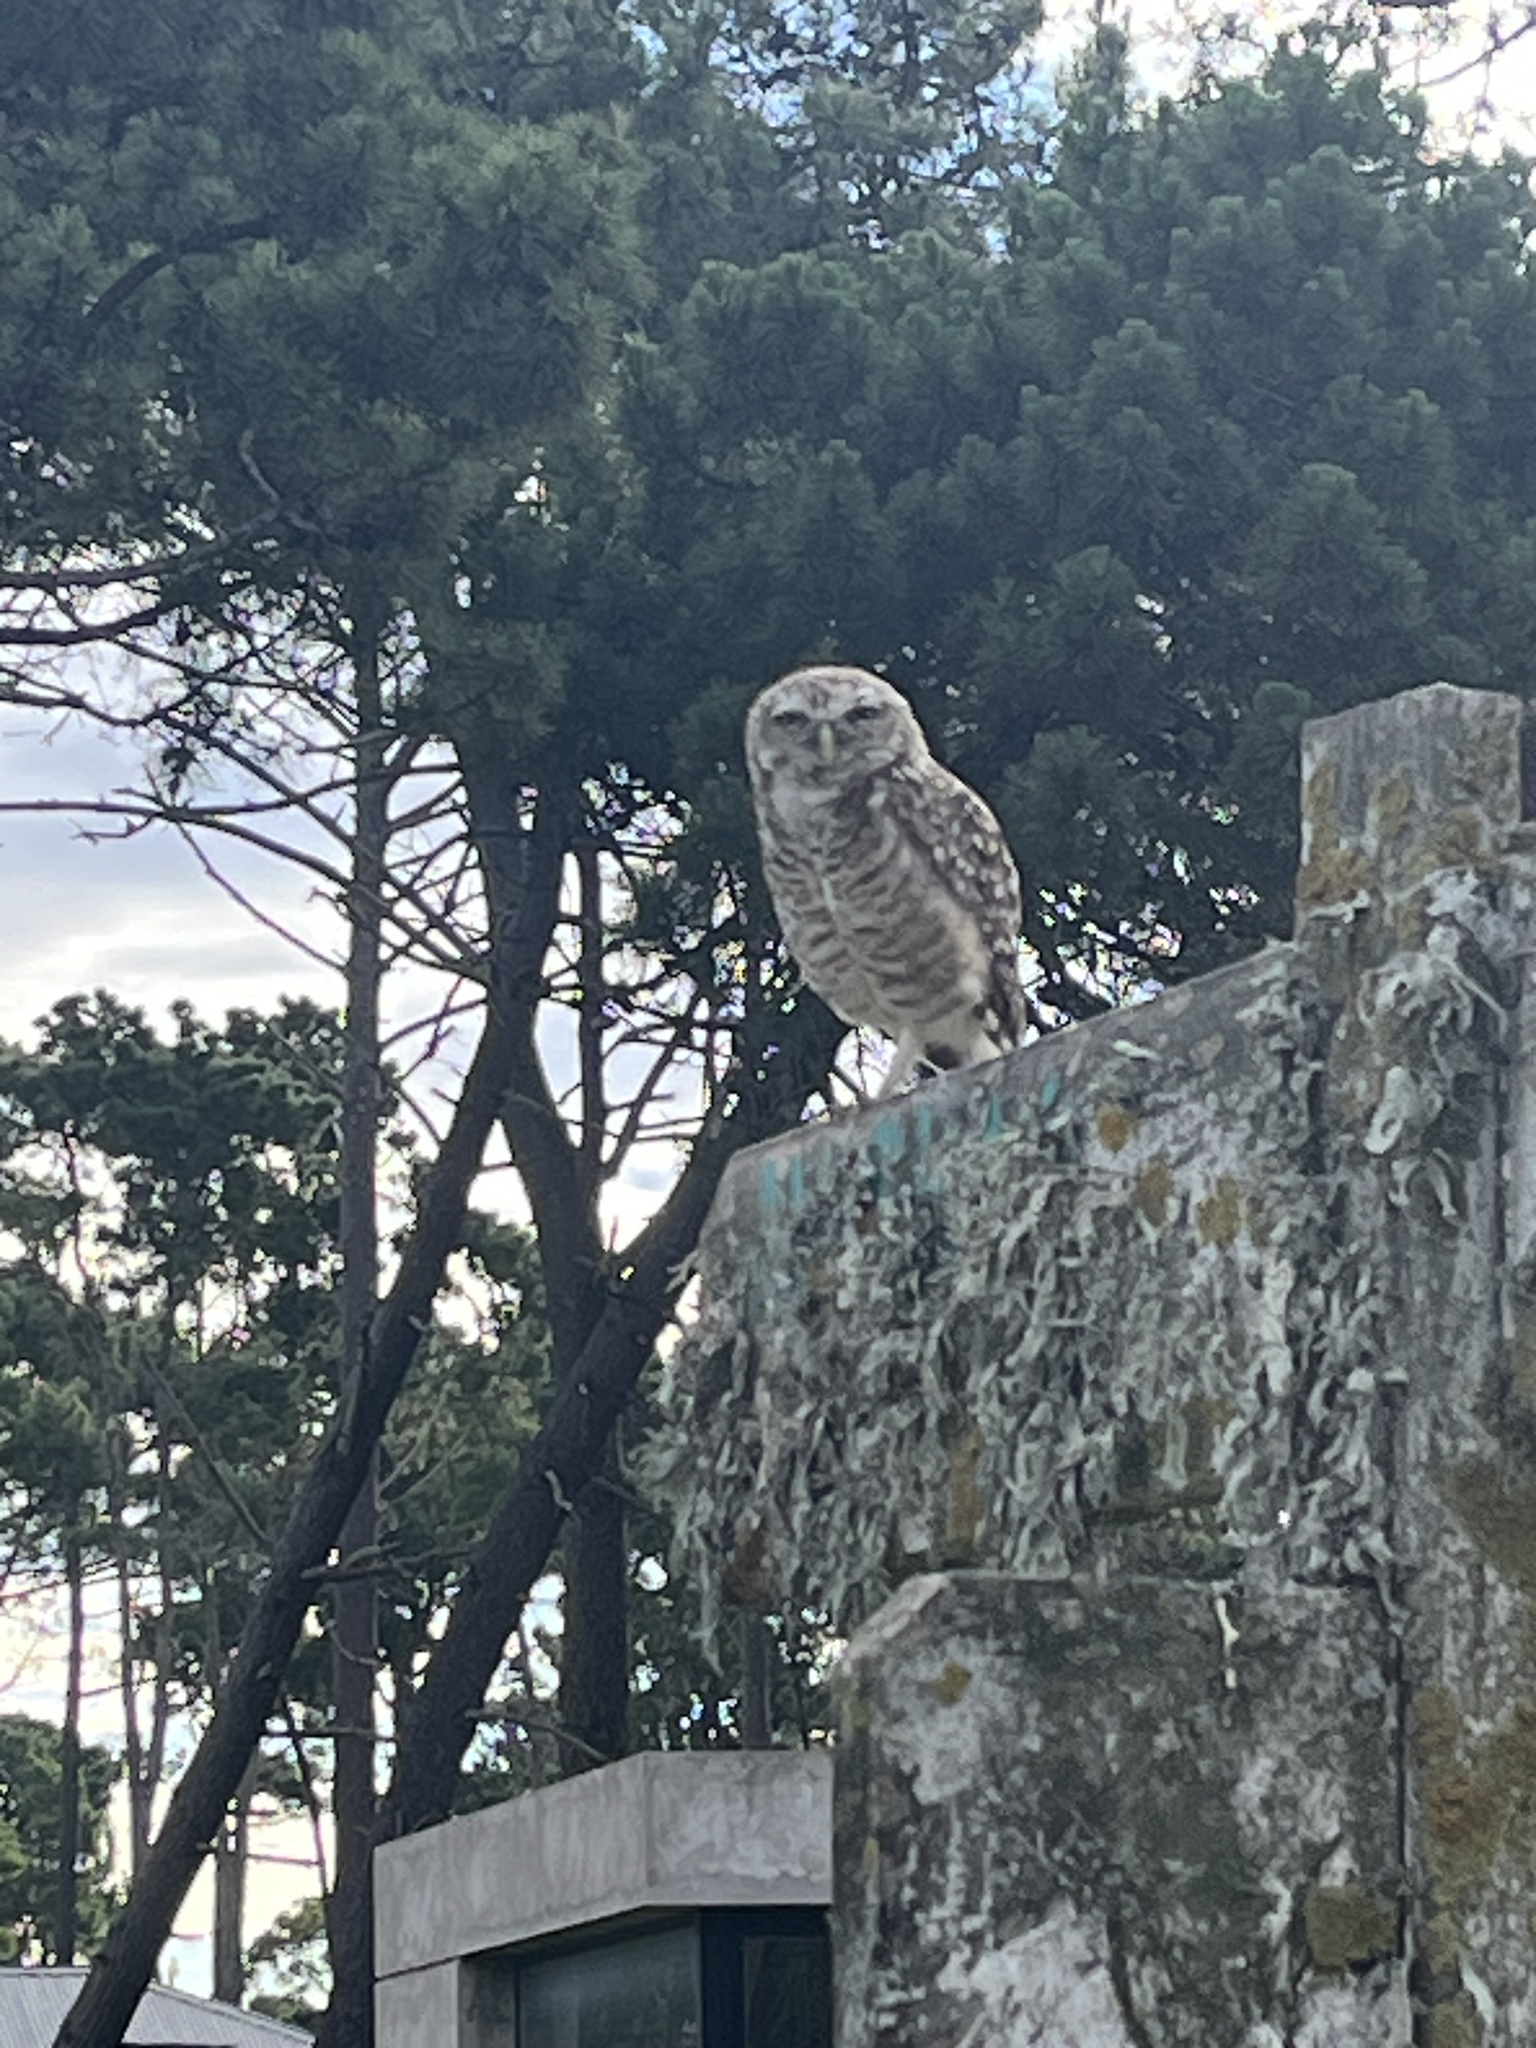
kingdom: Animalia
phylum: Chordata
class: Aves
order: Strigiformes
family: Strigidae
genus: Athene
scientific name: Athene cunicularia
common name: Burrowing owl
